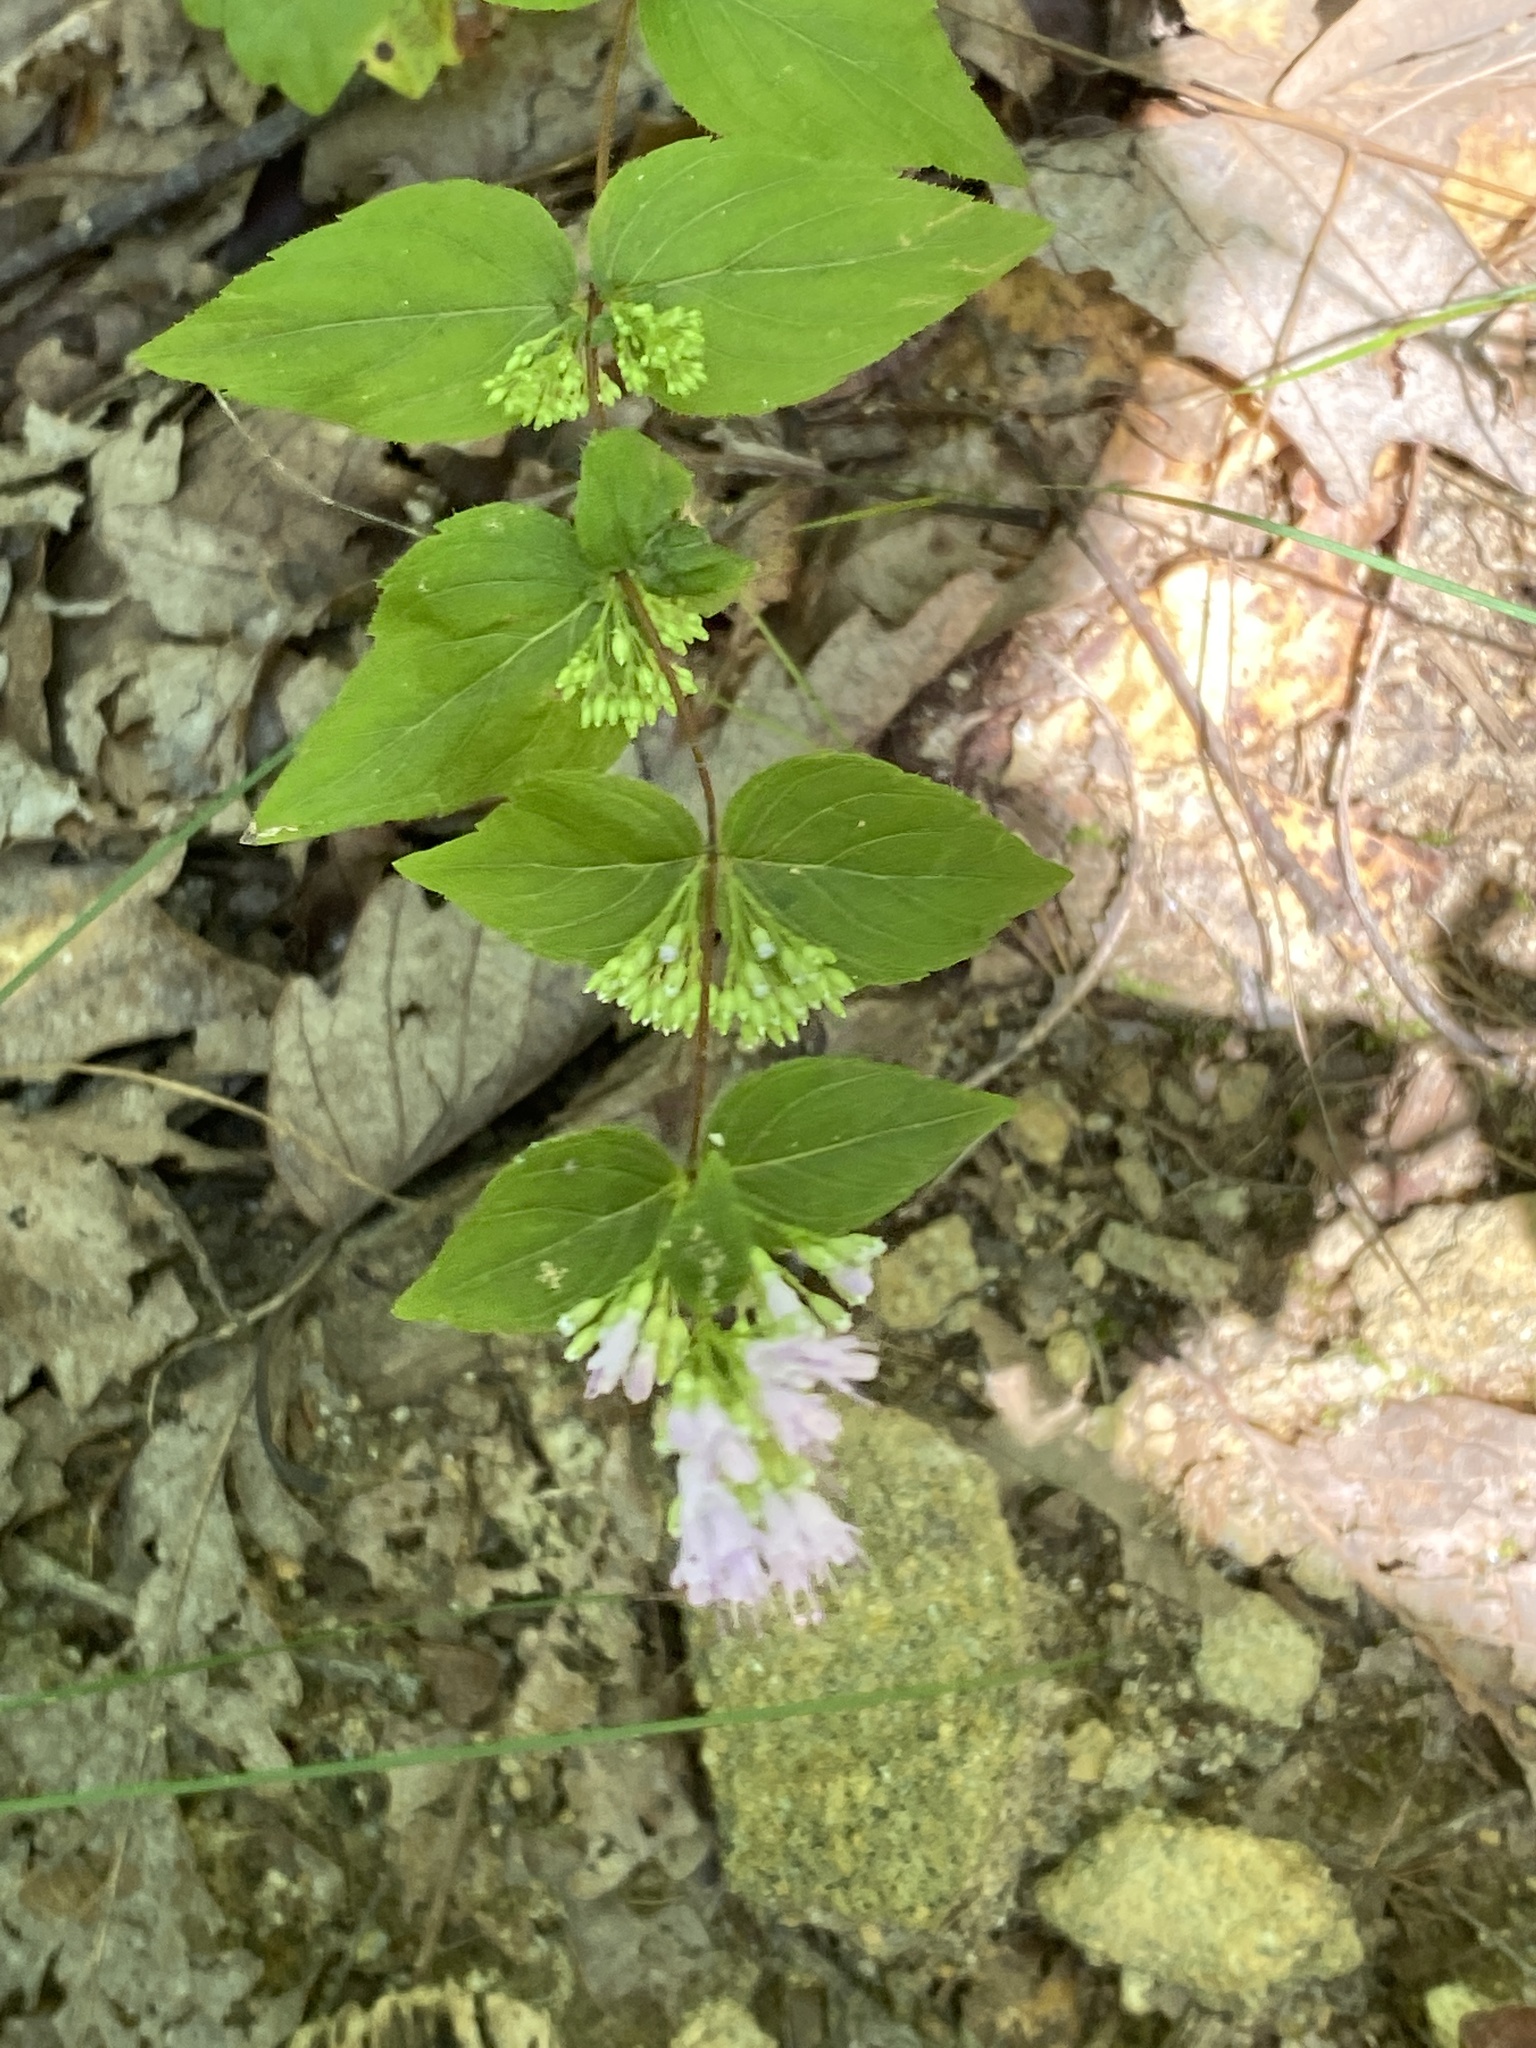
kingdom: Plantae
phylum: Tracheophyta
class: Magnoliopsida
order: Lamiales
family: Lamiaceae
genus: Cunila
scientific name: Cunila origanoides
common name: American dittany
